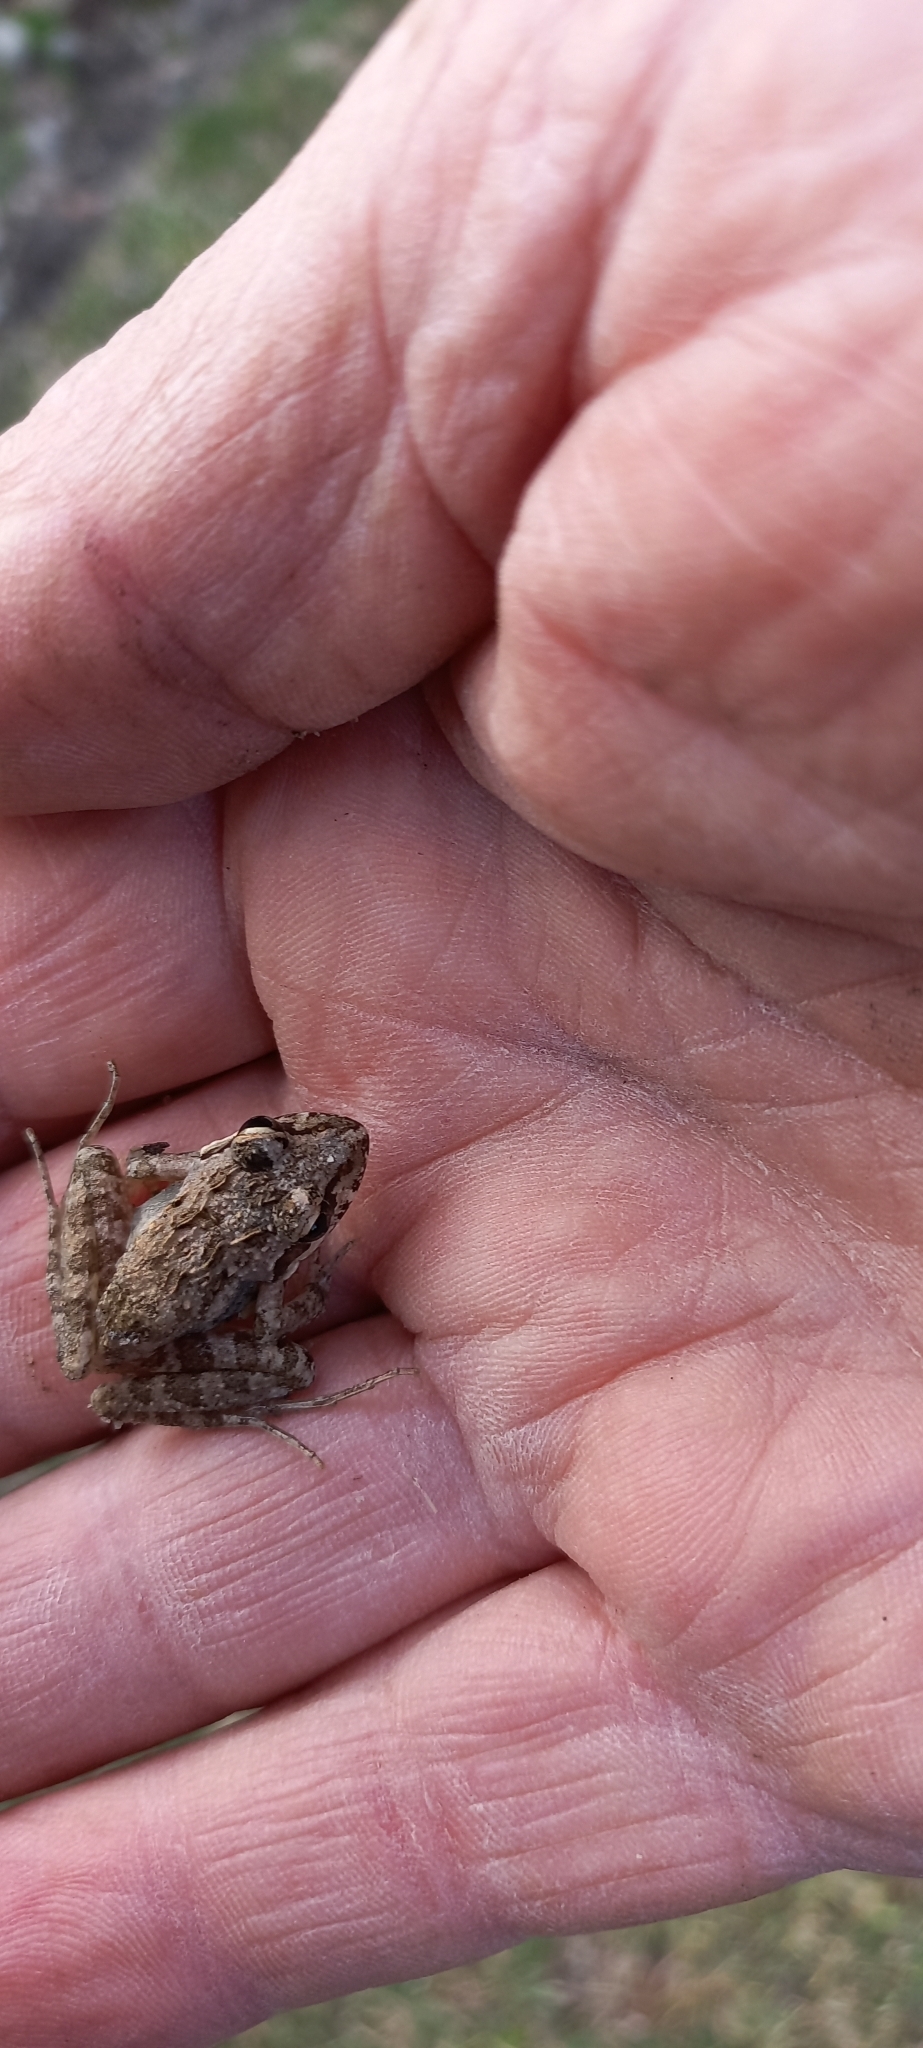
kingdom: Animalia
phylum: Chordata
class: Amphibia
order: Anura
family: Pyxicephalidae
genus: Strongylopus
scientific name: Strongylopus grayii
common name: Gray's stream frog
